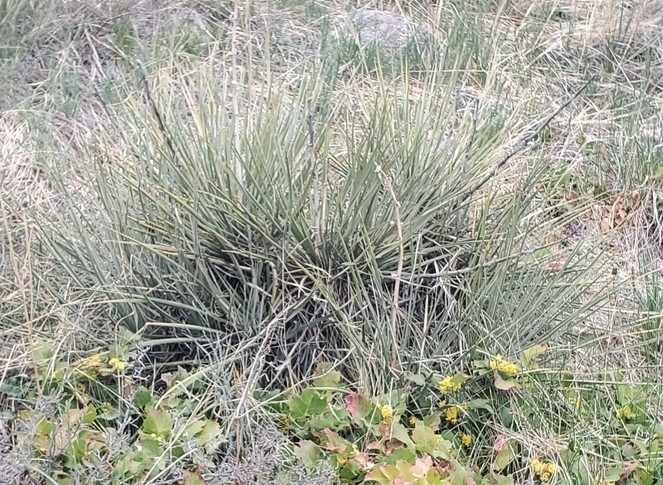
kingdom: Plantae
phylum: Tracheophyta
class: Liliopsida
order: Asparagales
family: Asparagaceae
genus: Yucca
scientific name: Yucca glauca
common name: Great plains yucca
